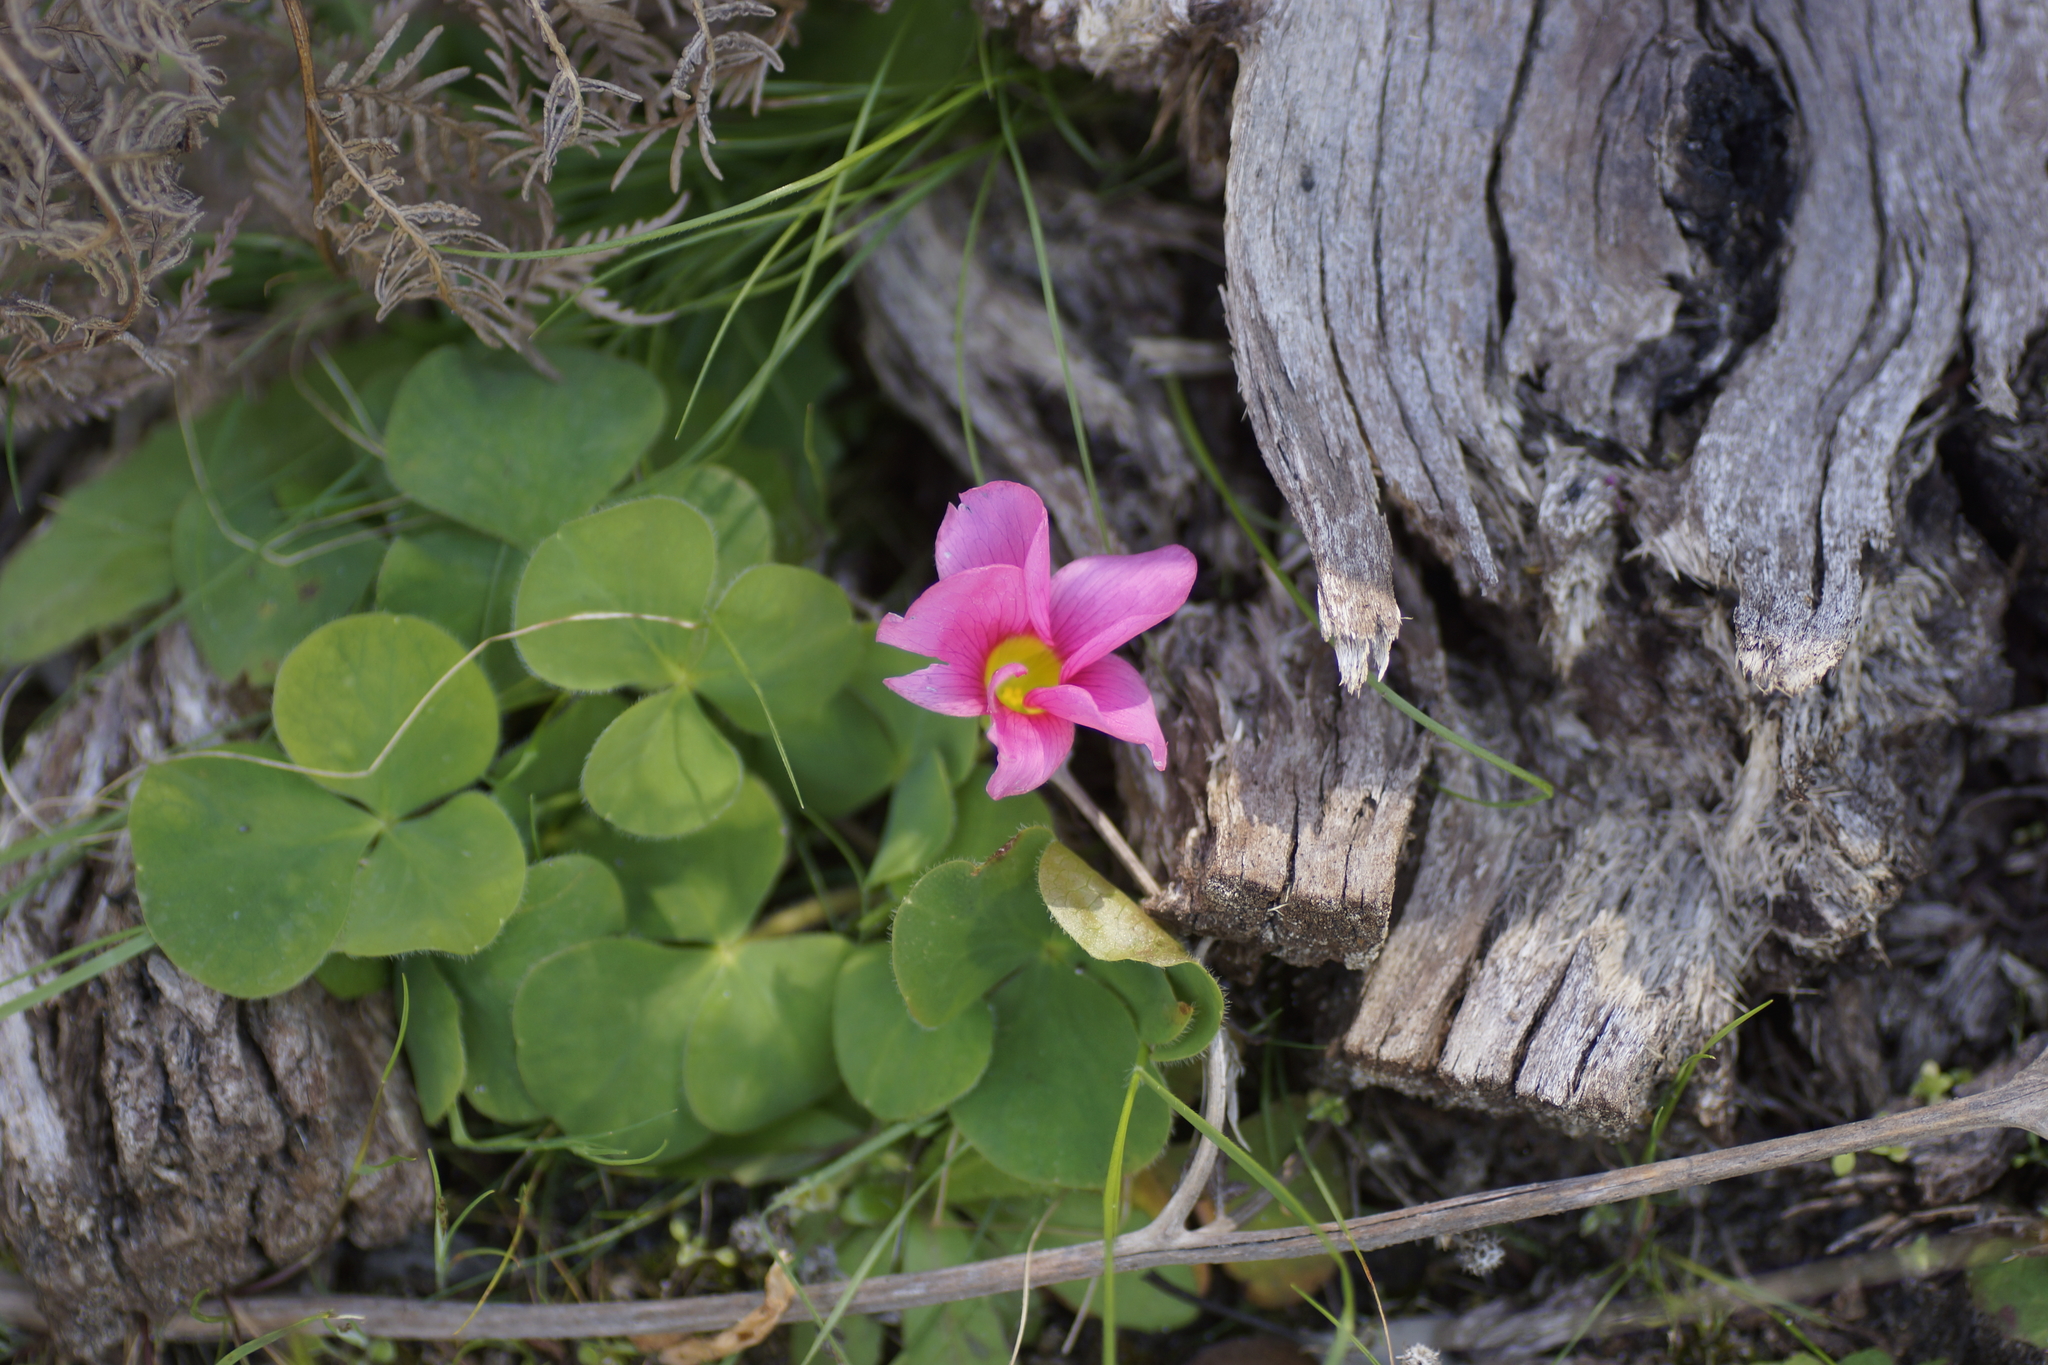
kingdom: Plantae
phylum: Tracheophyta
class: Magnoliopsida
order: Oxalidales
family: Oxalidaceae
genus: Oxalis
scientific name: Oxalis purpurea
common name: Purple woodsorrel
